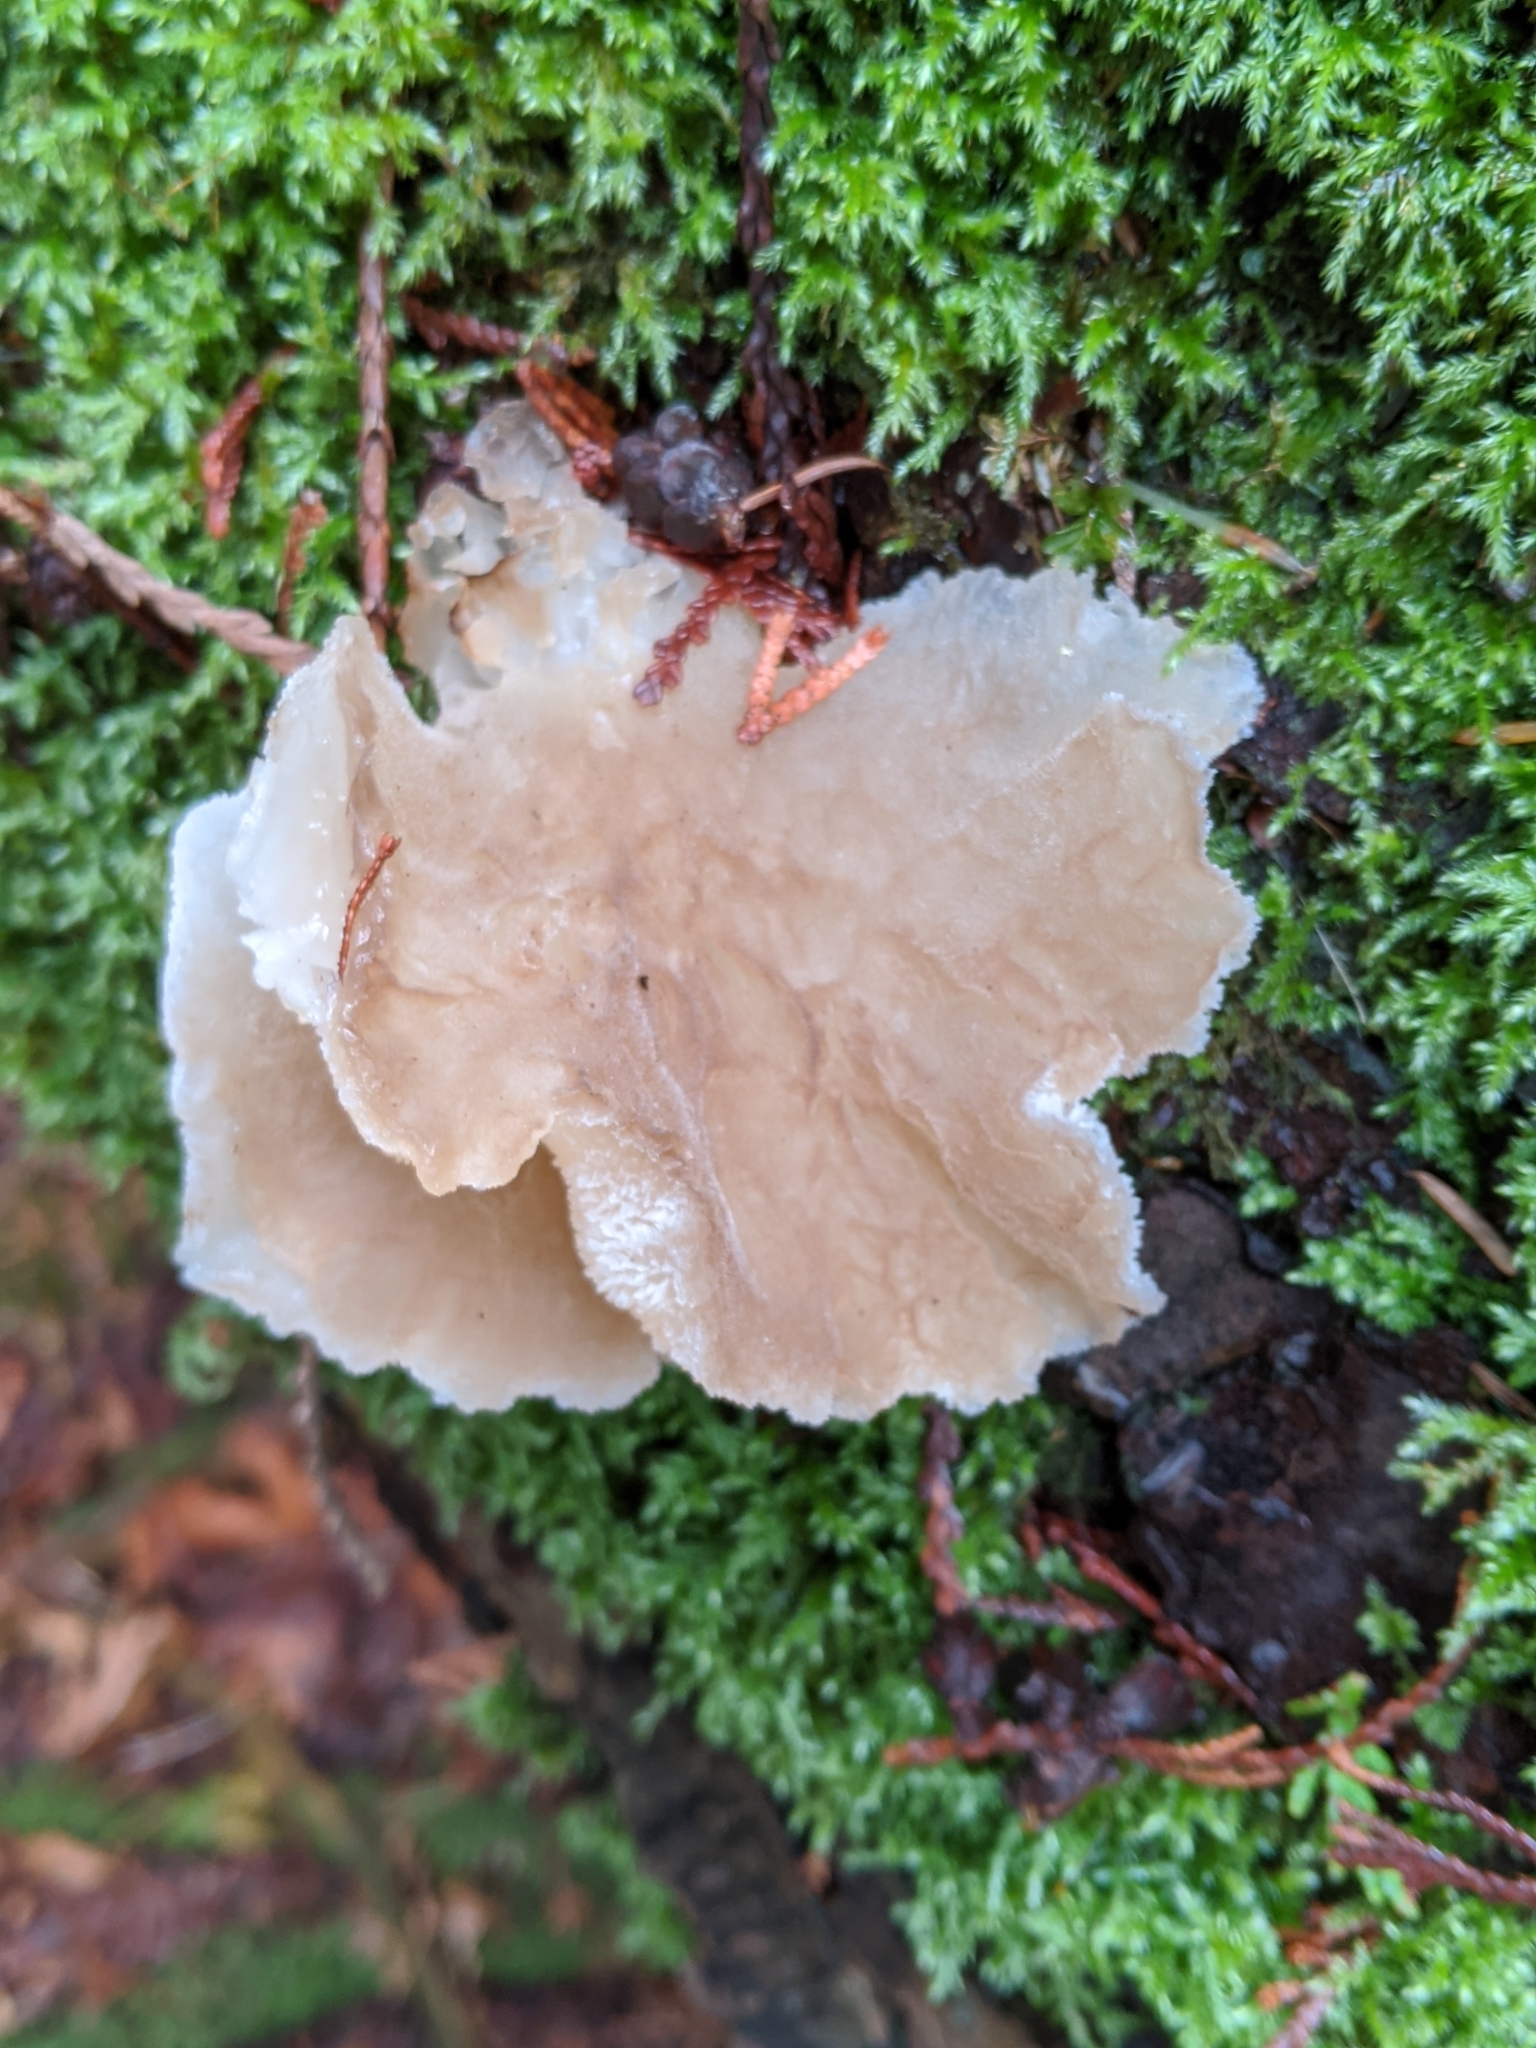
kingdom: Fungi
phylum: Basidiomycota
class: Agaricomycetes
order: Auriculariales
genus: Pseudohydnum
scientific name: Pseudohydnum gelatinosum
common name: Jelly tongue
